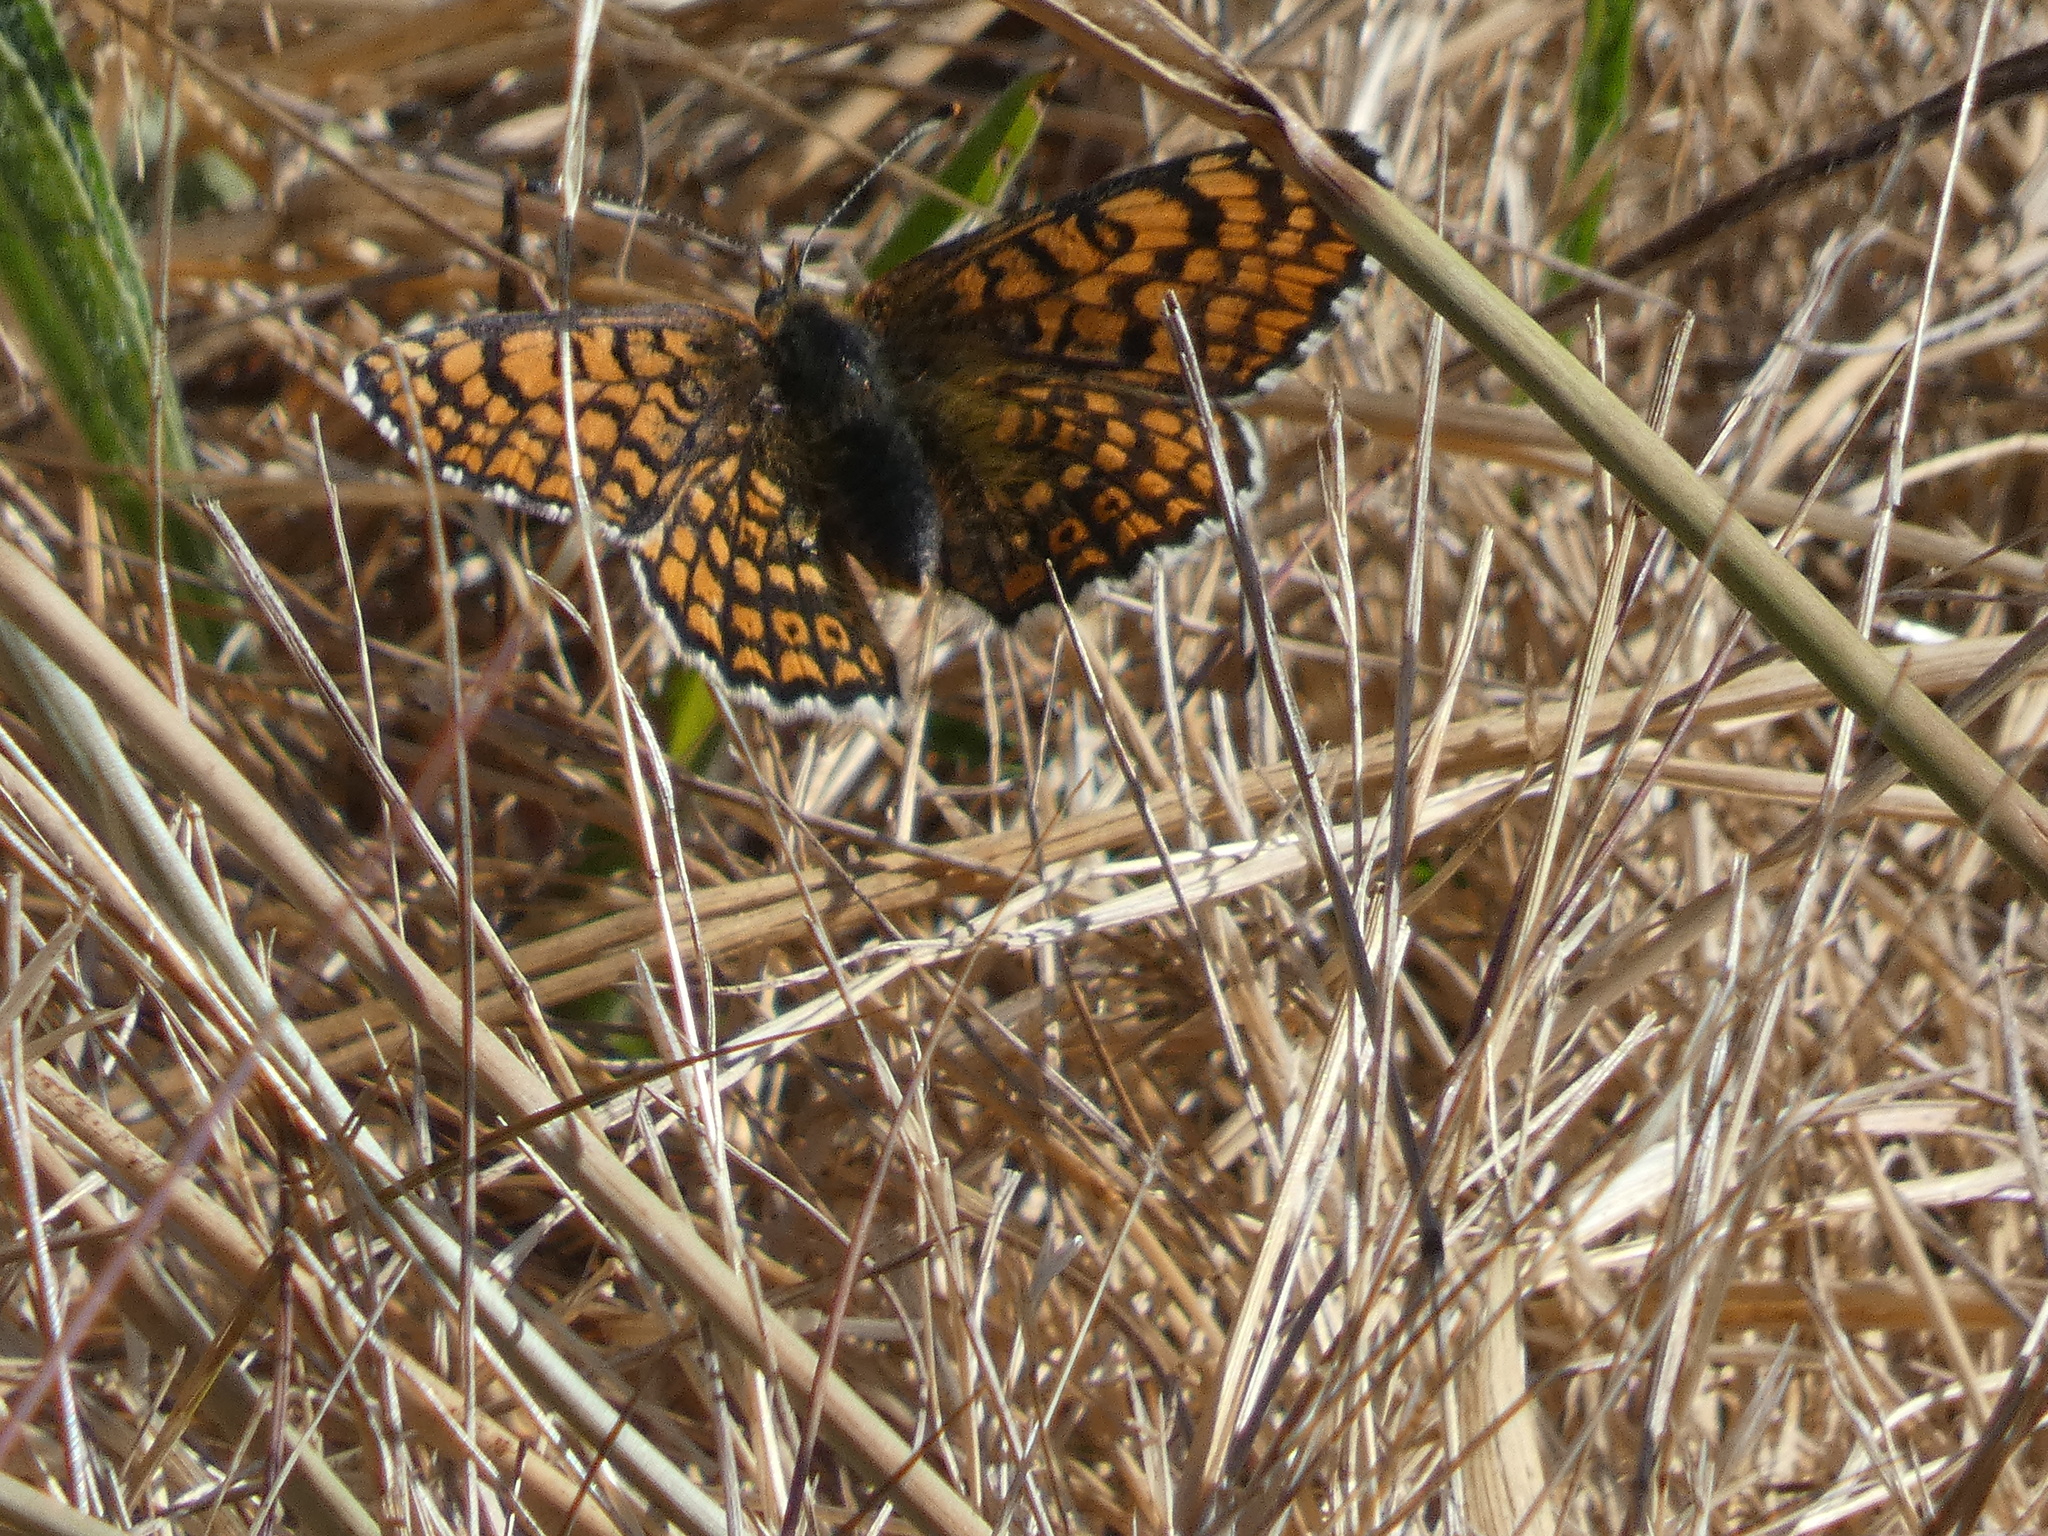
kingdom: Animalia
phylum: Arthropoda
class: Insecta
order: Lepidoptera
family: Nymphalidae
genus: Melitaea
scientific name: Melitaea cinxia
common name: Glanville fritillary
